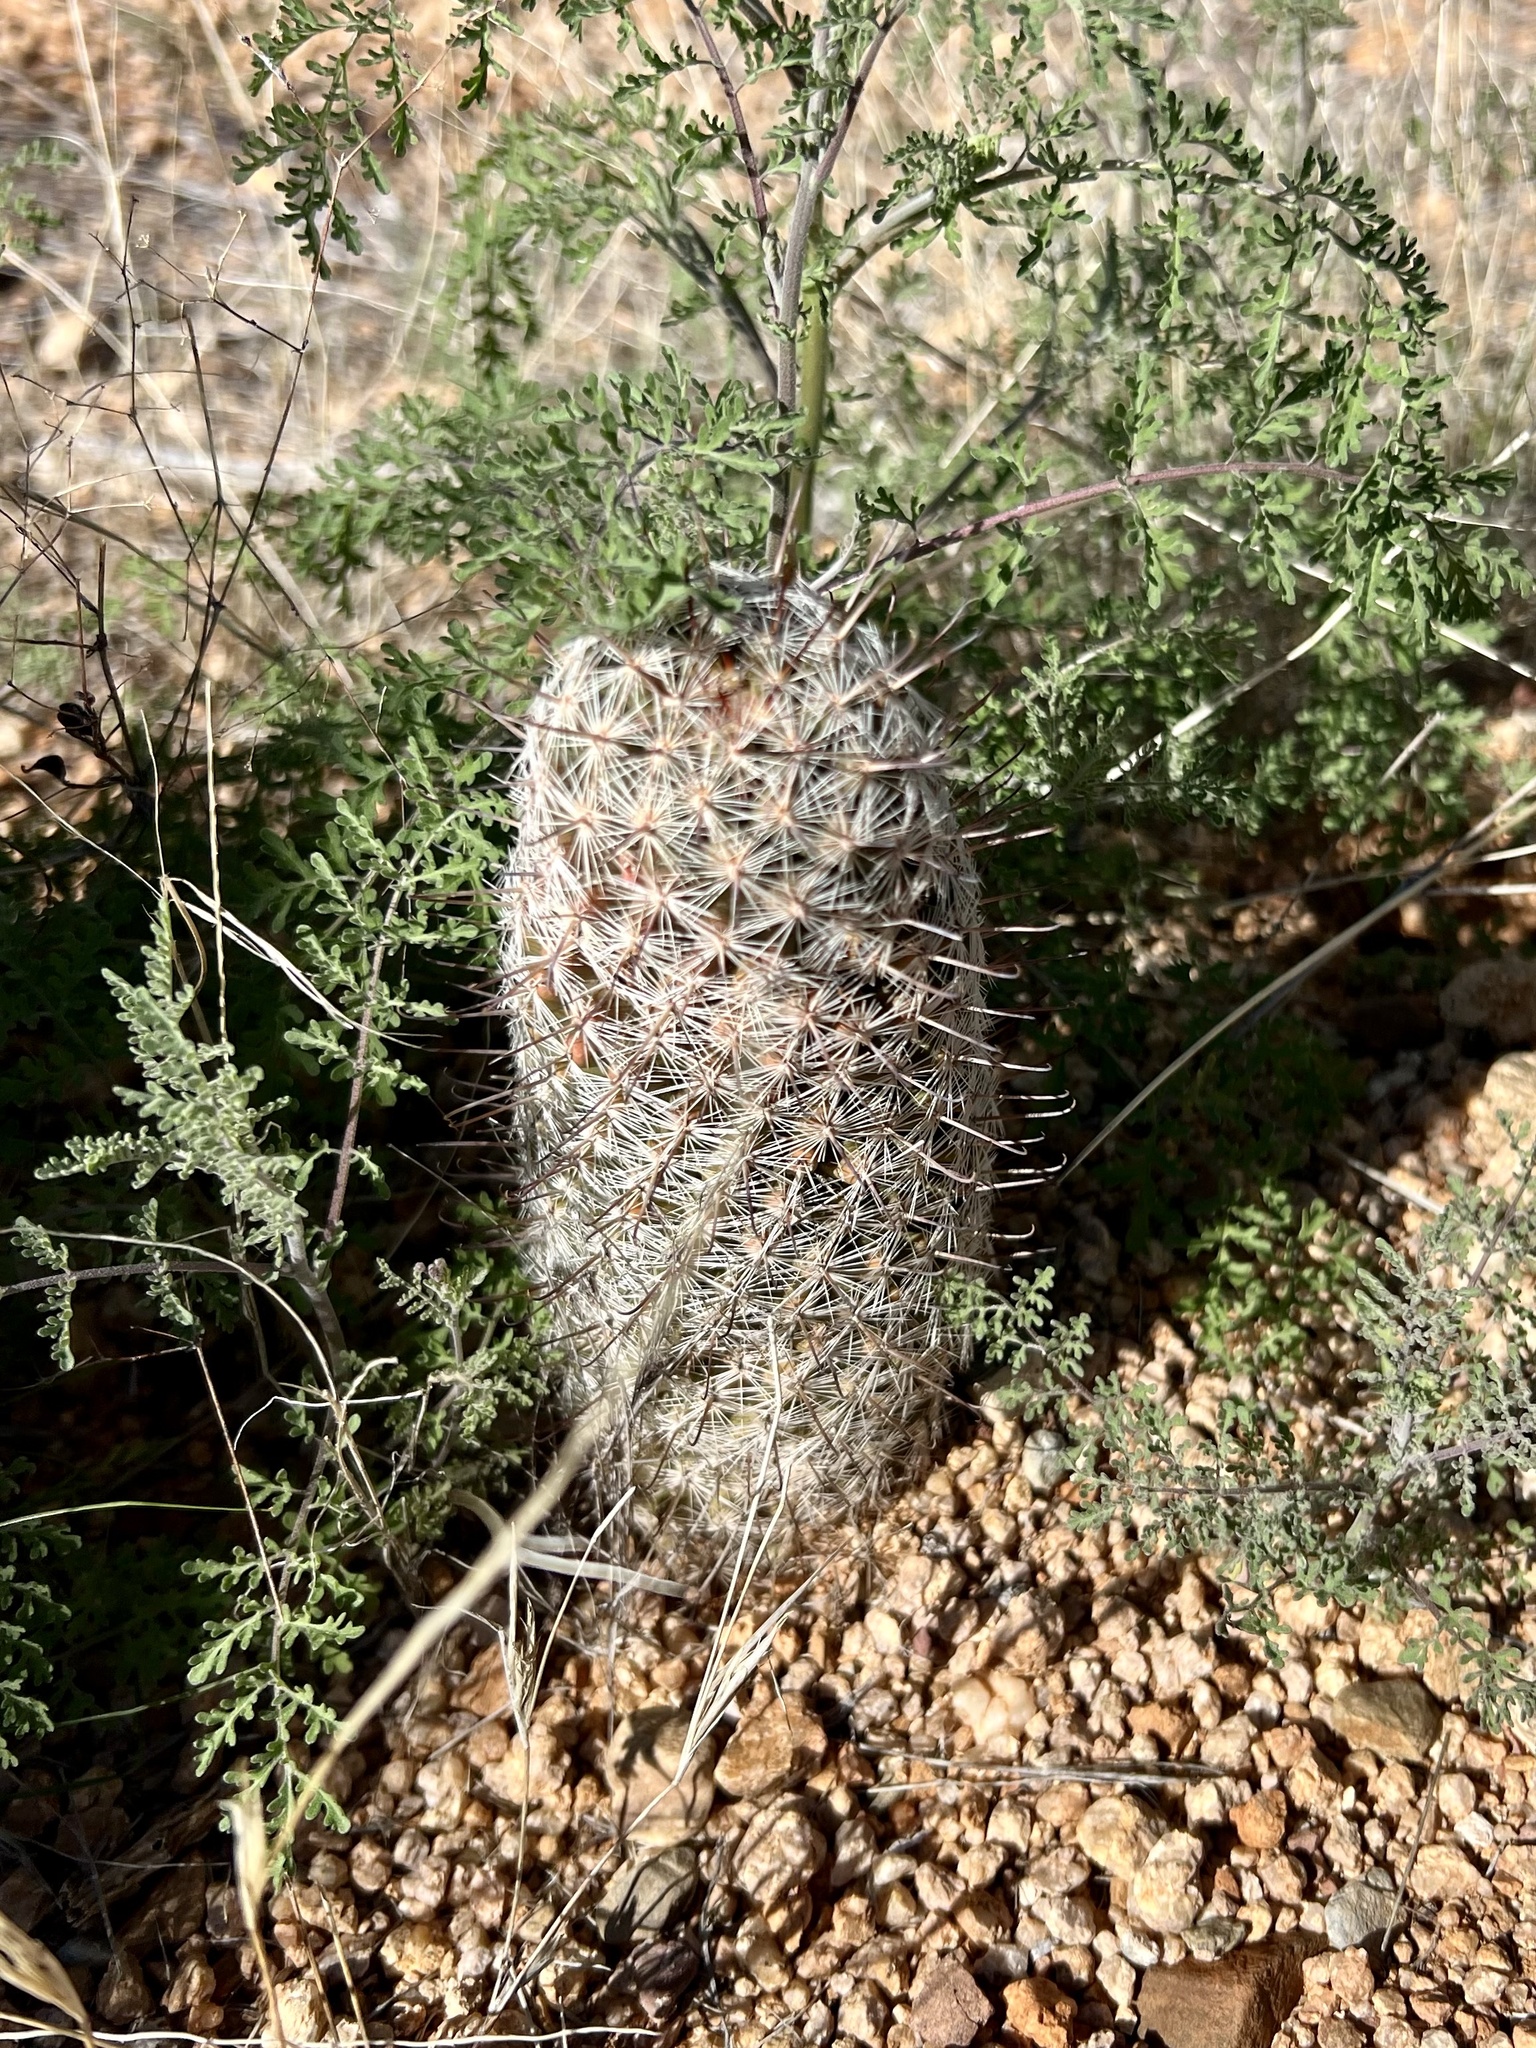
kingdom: Plantae
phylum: Tracheophyta
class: Magnoliopsida
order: Caryophyllales
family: Cactaceae
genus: Cochemiea
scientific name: Cochemiea grahamii
